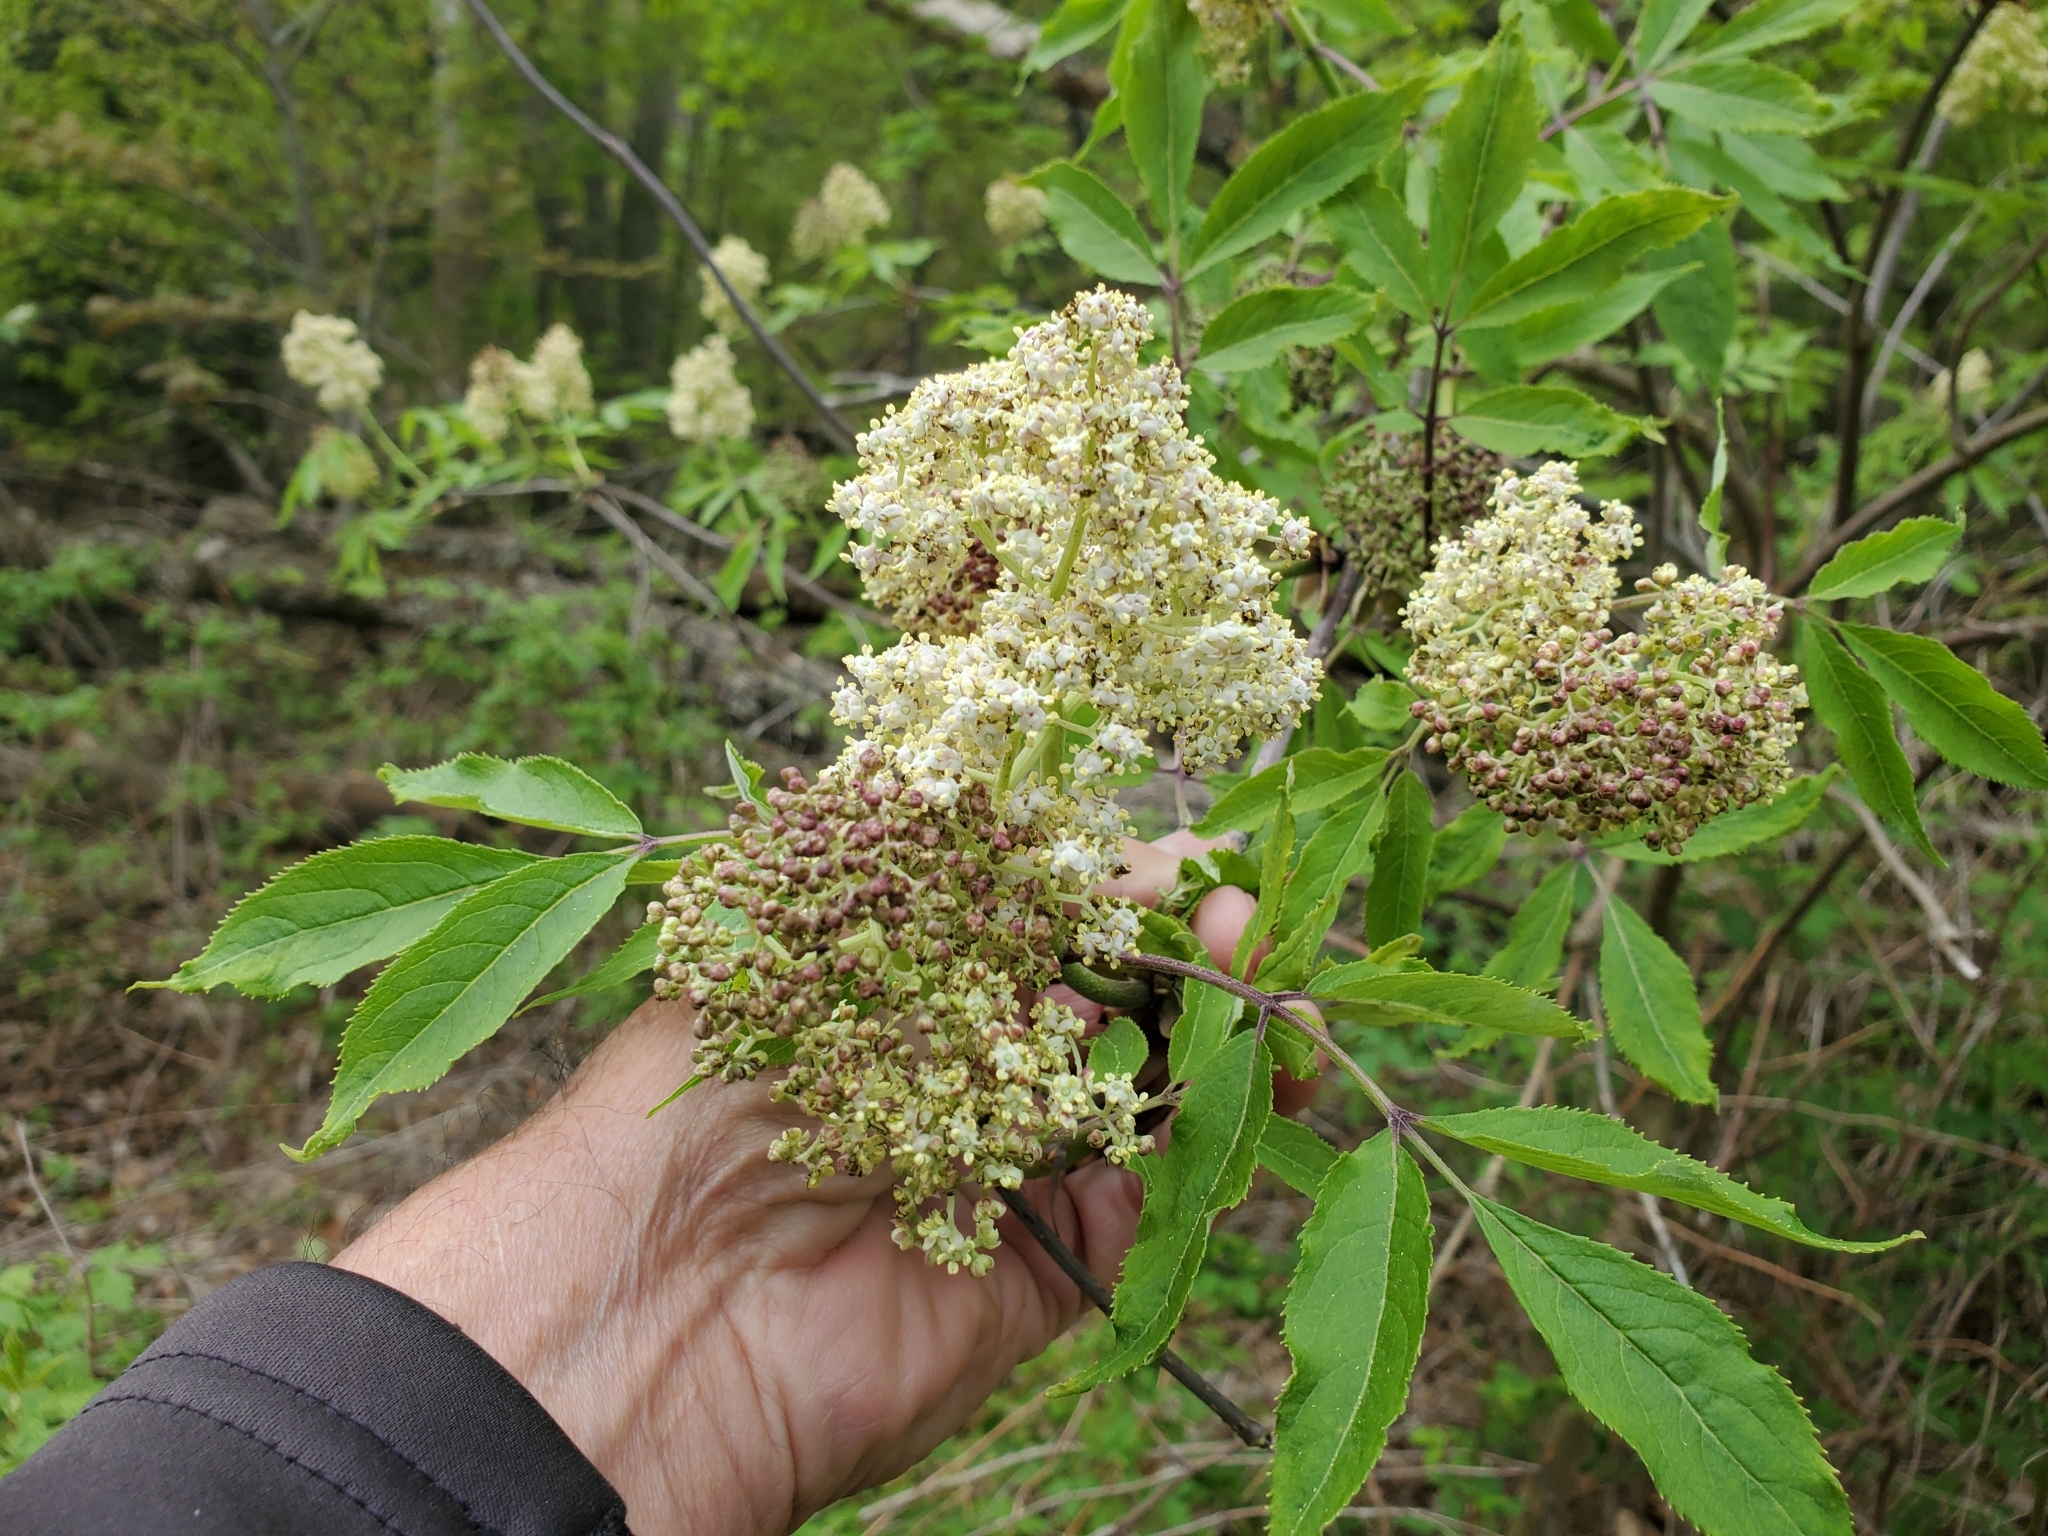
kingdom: Plantae
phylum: Tracheophyta
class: Magnoliopsida
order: Dipsacales
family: Viburnaceae
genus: Sambucus
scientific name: Sambucus racemosa
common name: Red-berried elder
